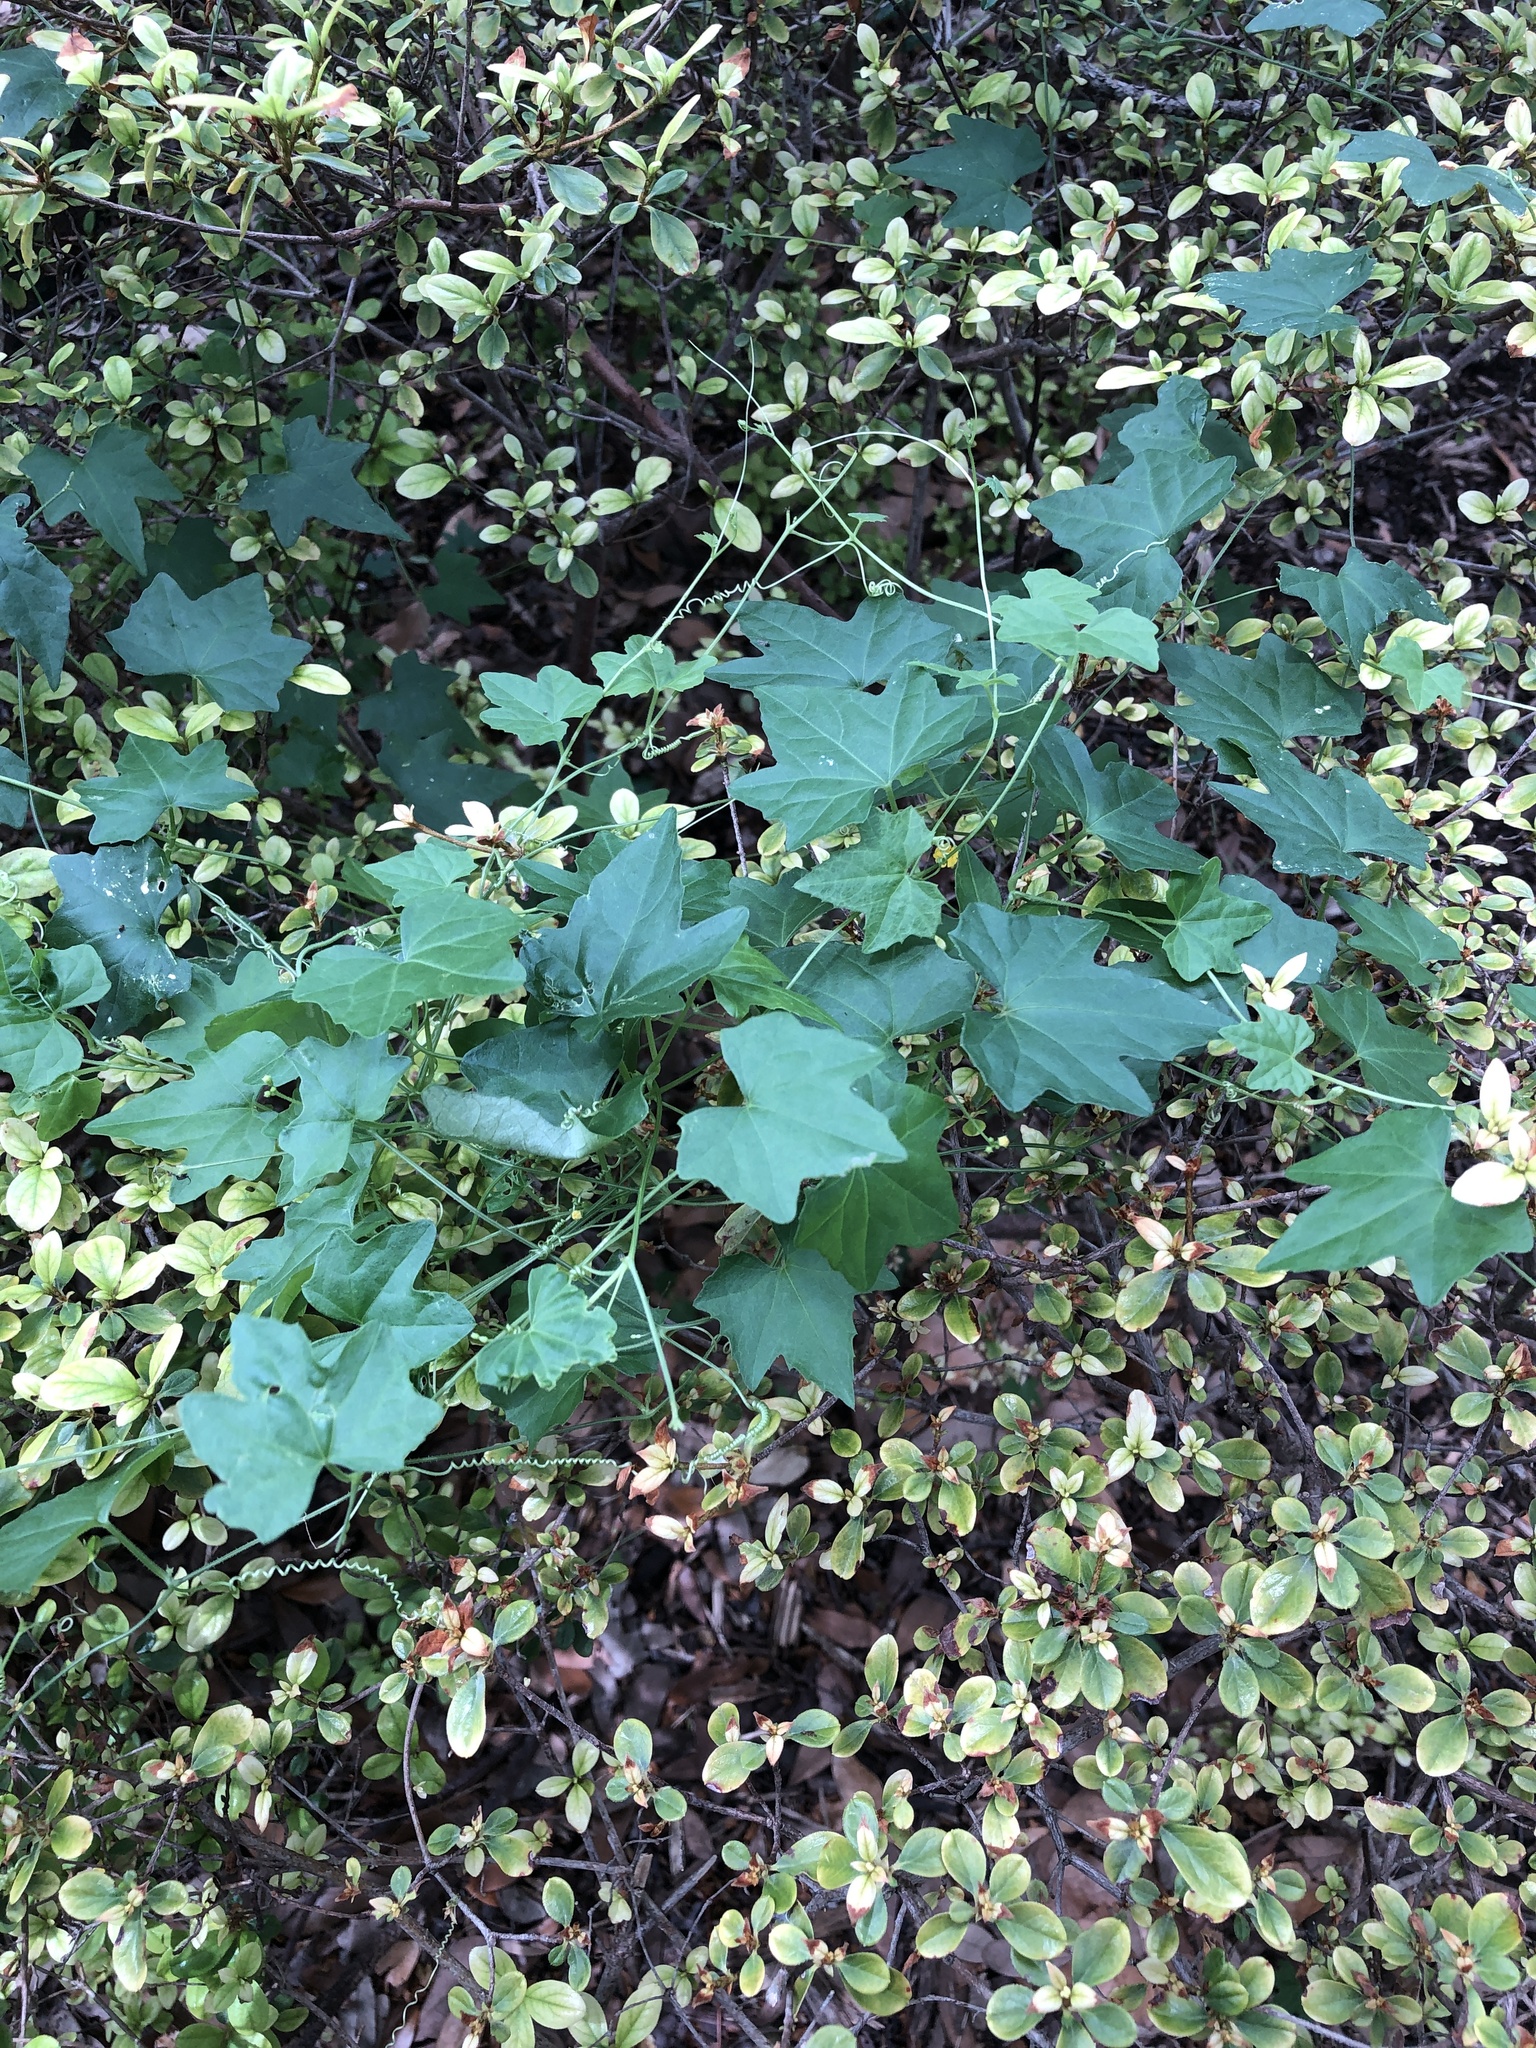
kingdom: Plantae
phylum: Tracheophyta
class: Magnoliopsida
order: Cucurbitales
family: Cucurbitaceae
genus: Melothria
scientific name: Melothria pendula
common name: Creeping-cucumber
